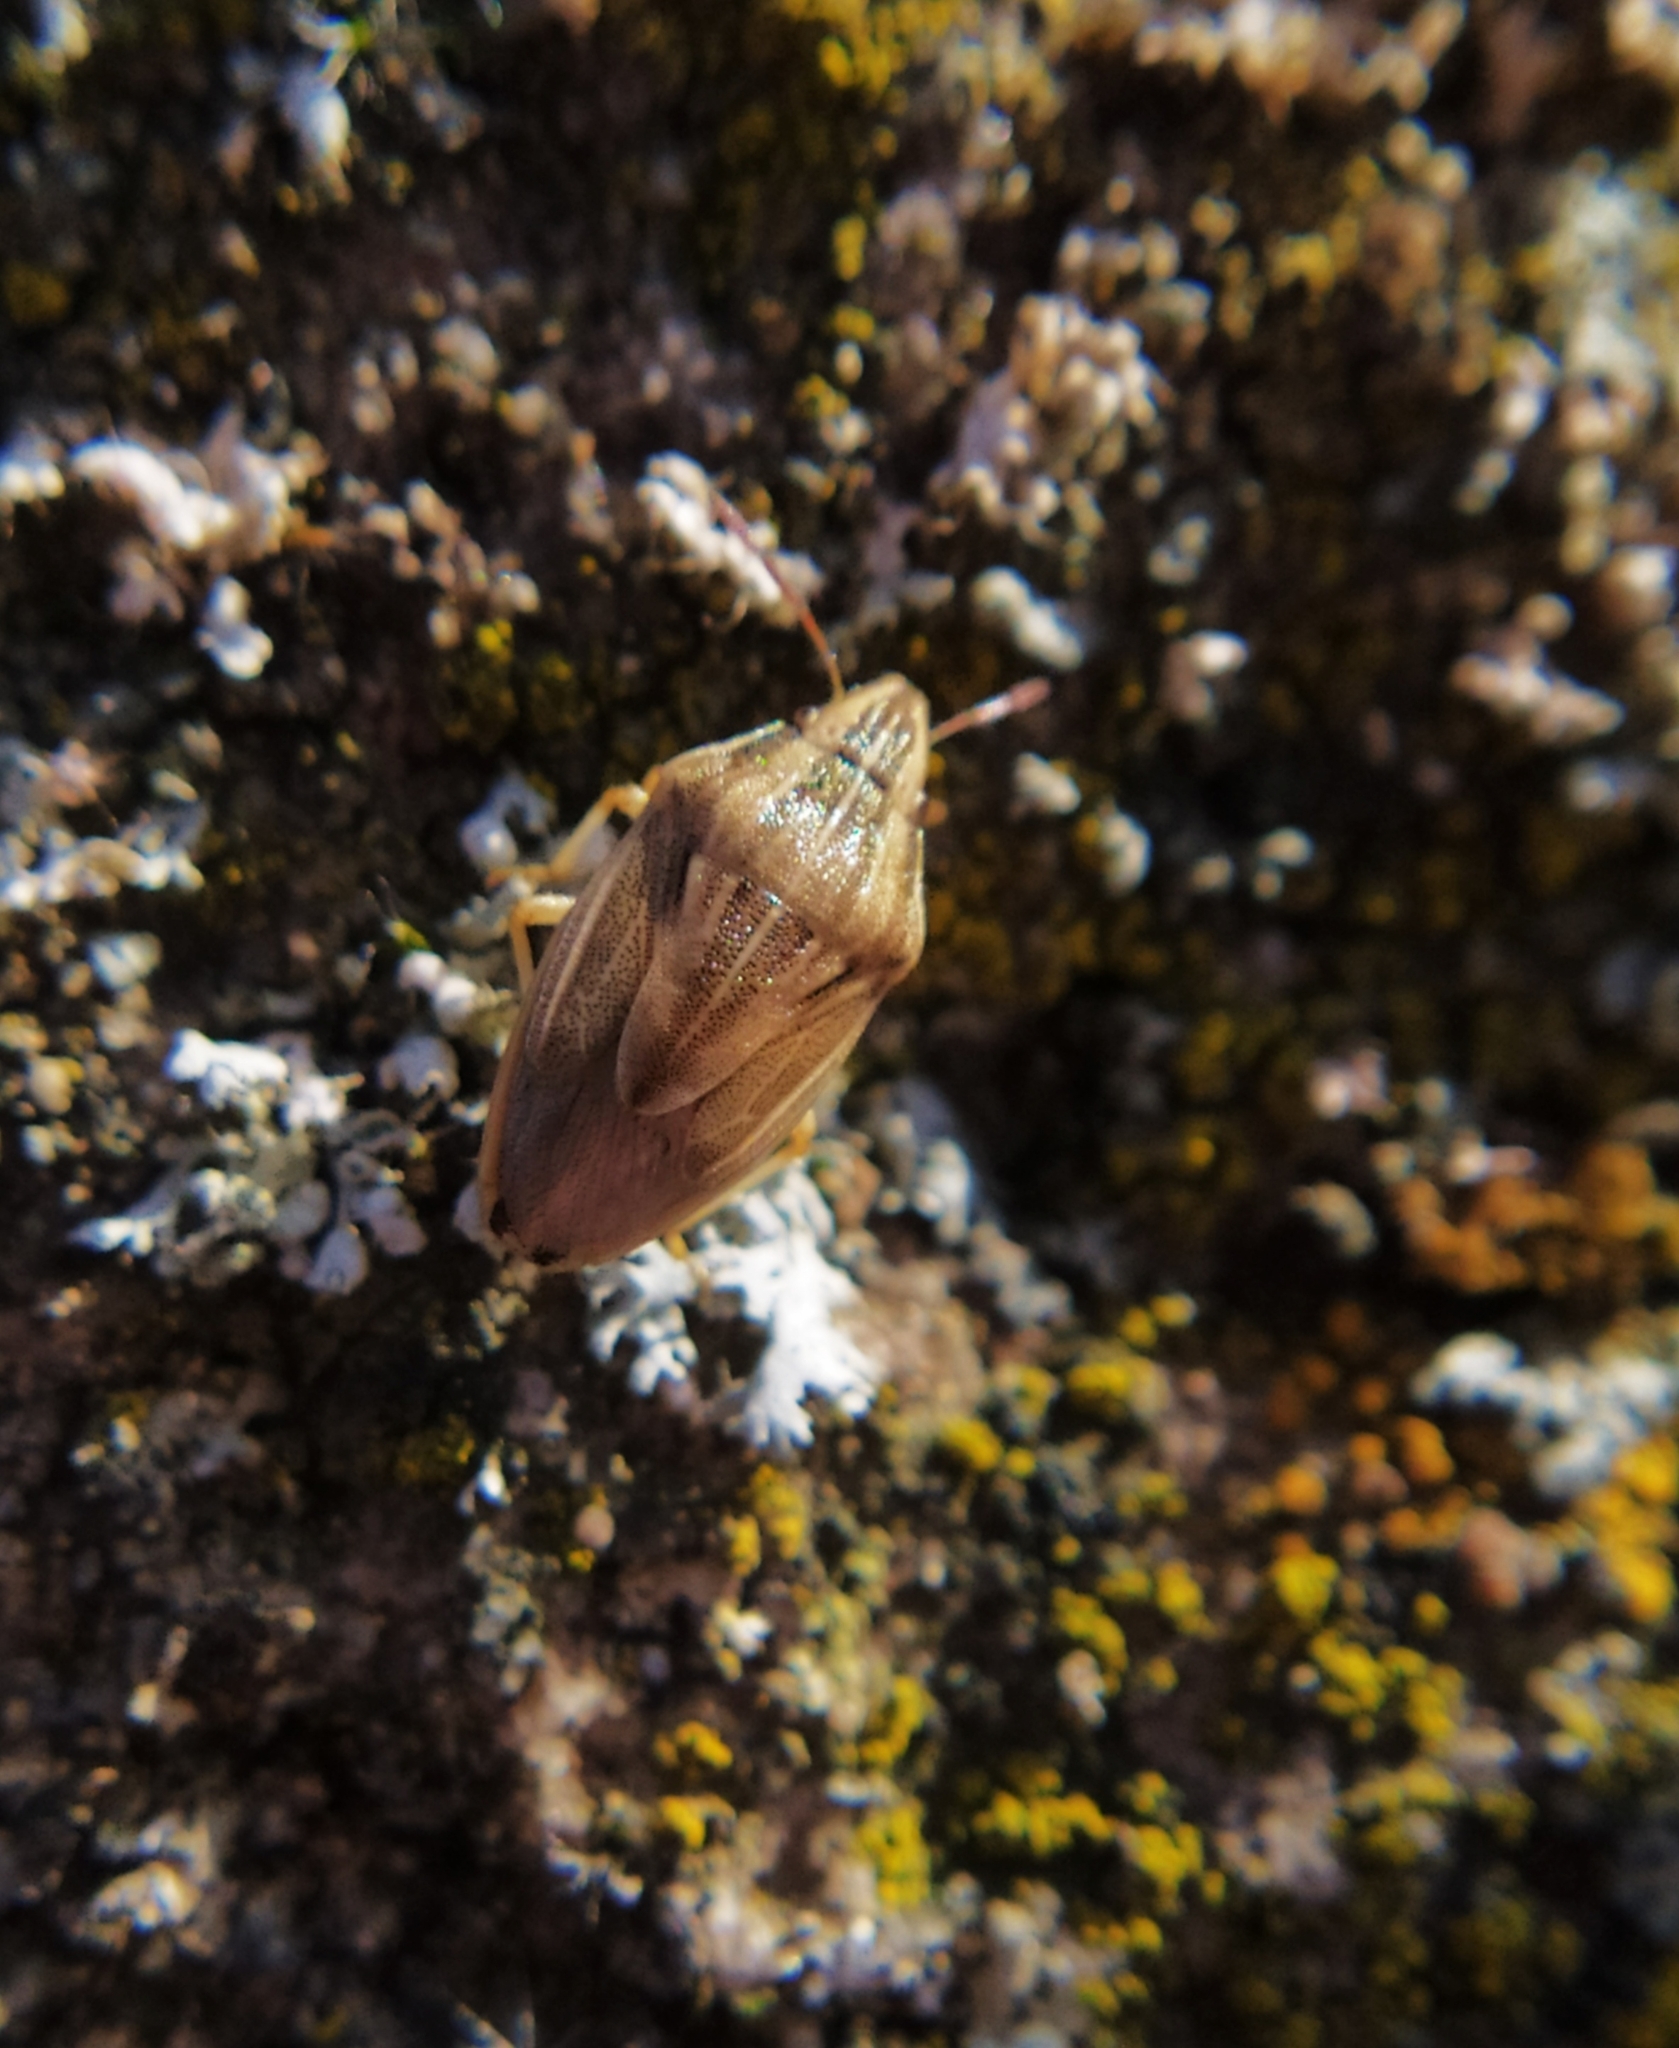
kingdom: Animalia
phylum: Arthropoda
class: Insecta
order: Hemiptera
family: Pentatomidae
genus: Aelia
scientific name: Aelia acuminata
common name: Bishop's mitre
